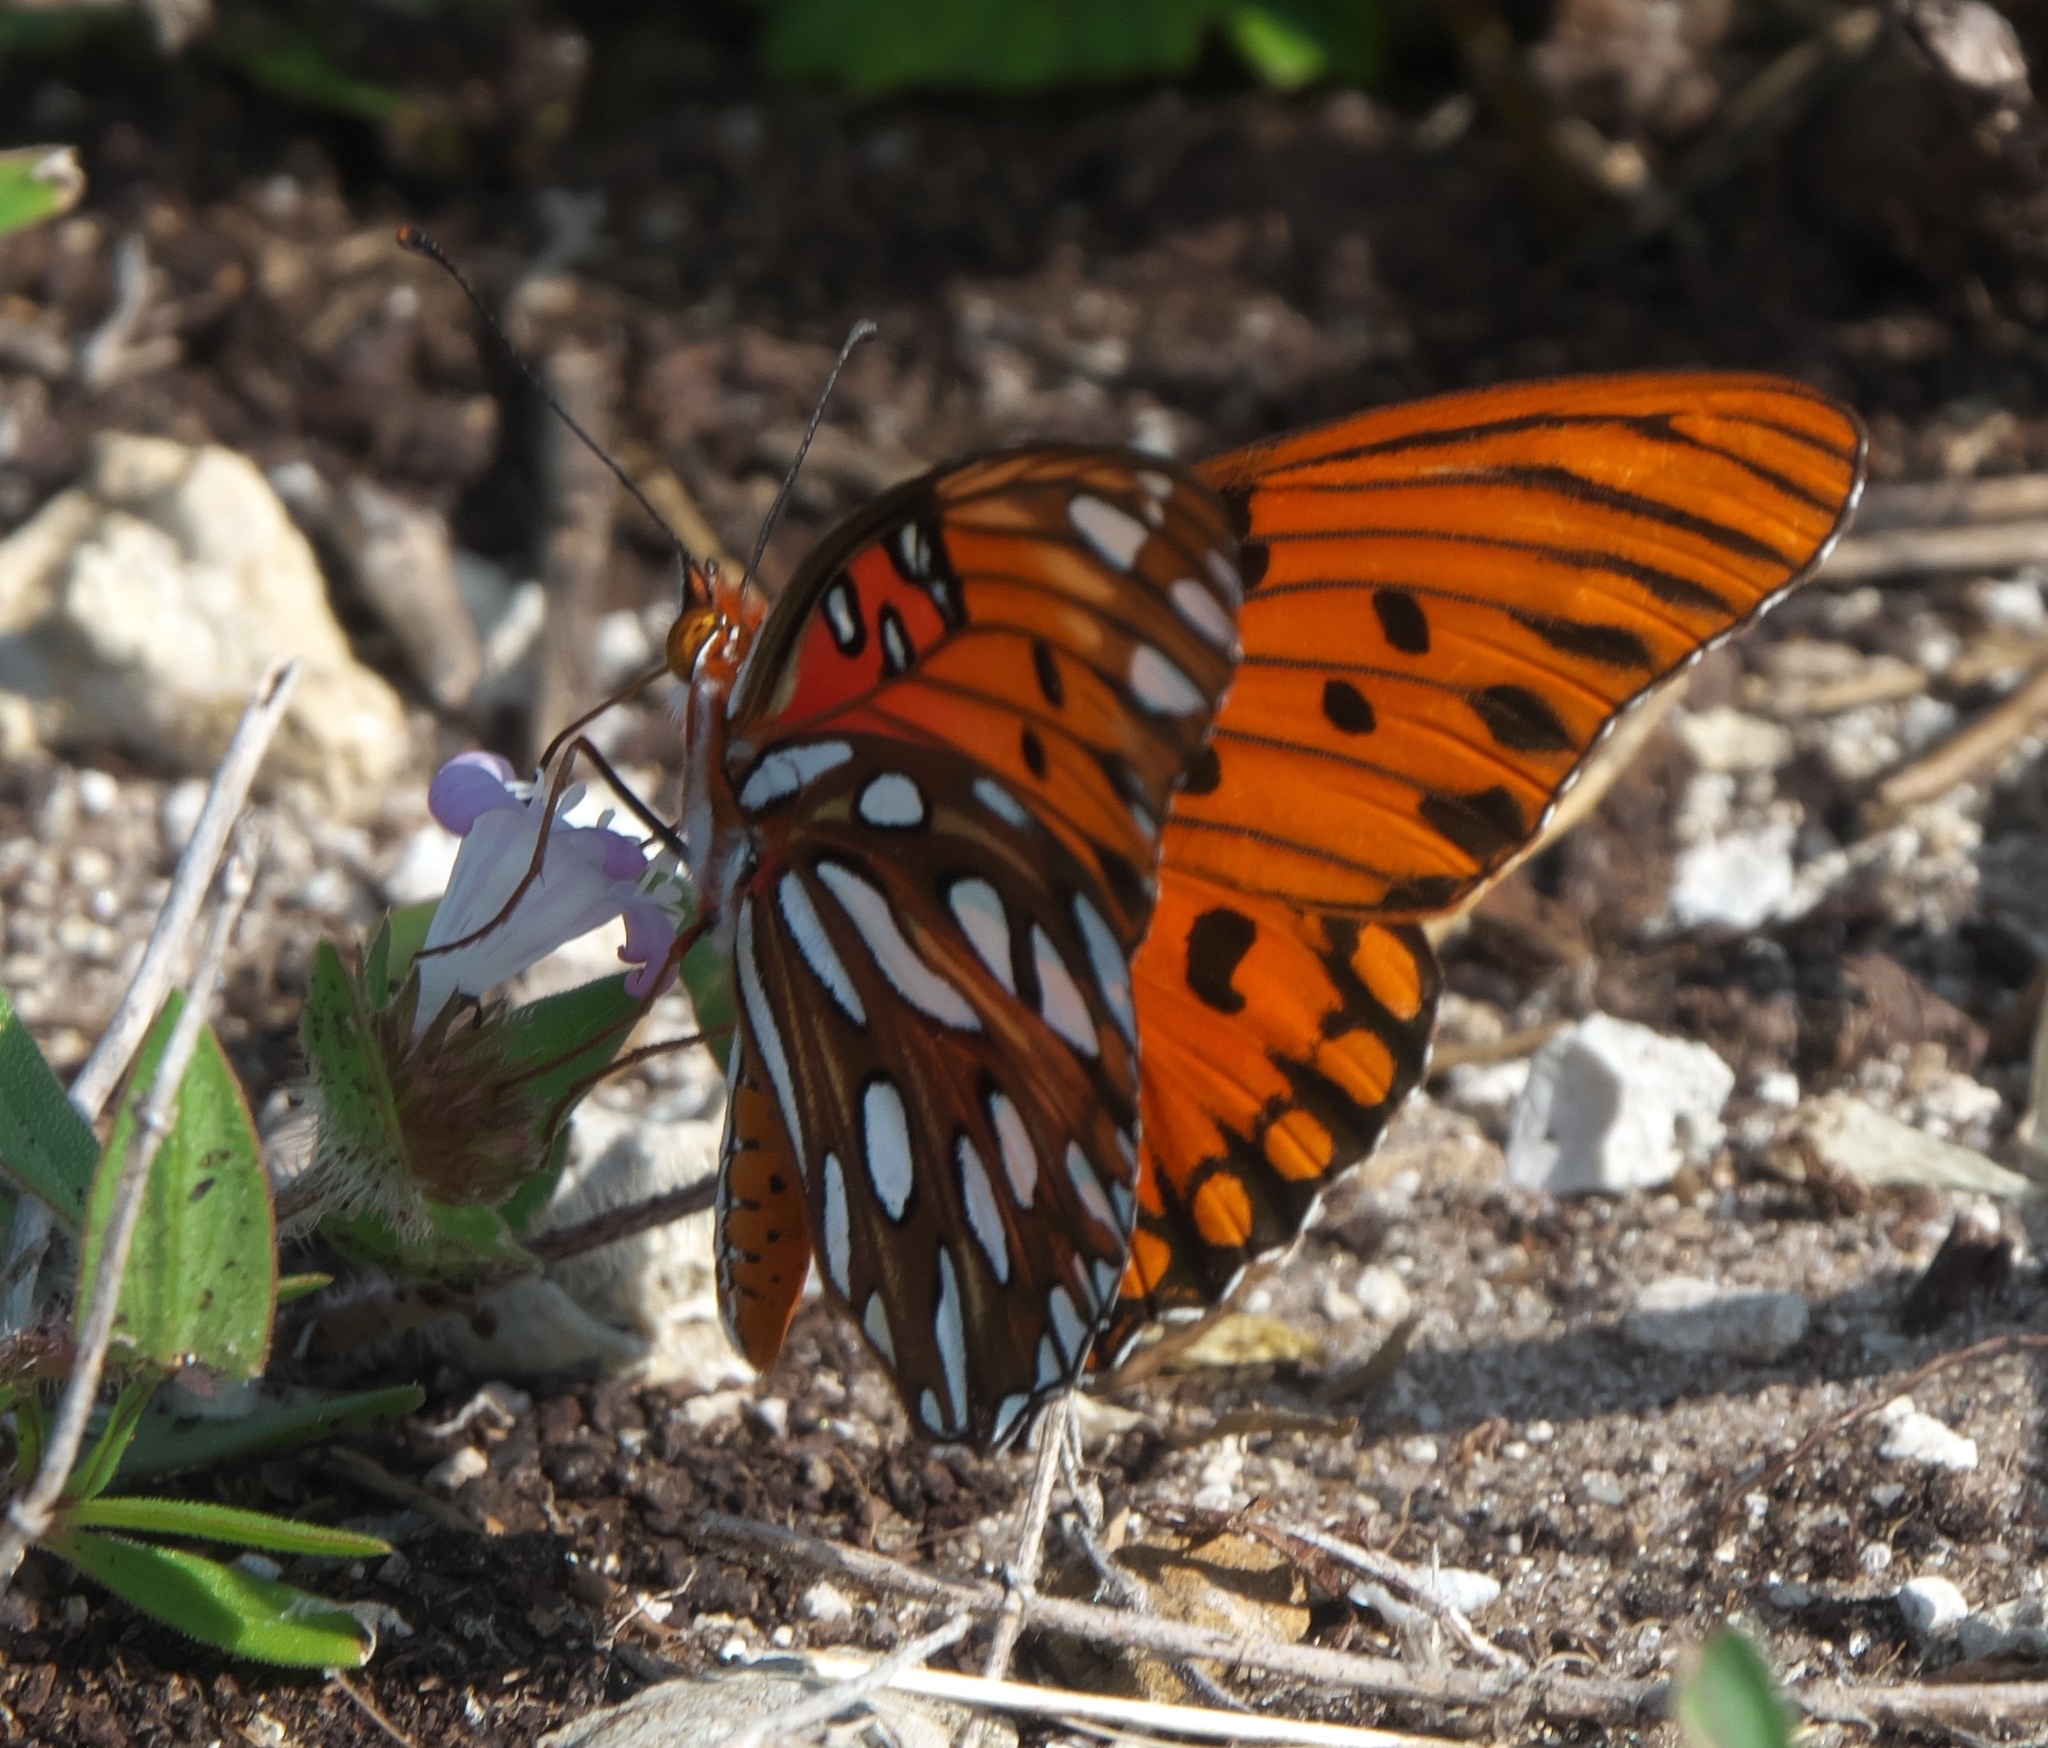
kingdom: Animalia
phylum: Arthropoda
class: Insecta
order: Lepidoptera
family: Nymphalidae
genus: Dione
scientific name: Dione vanillae
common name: Gulf fritillary
